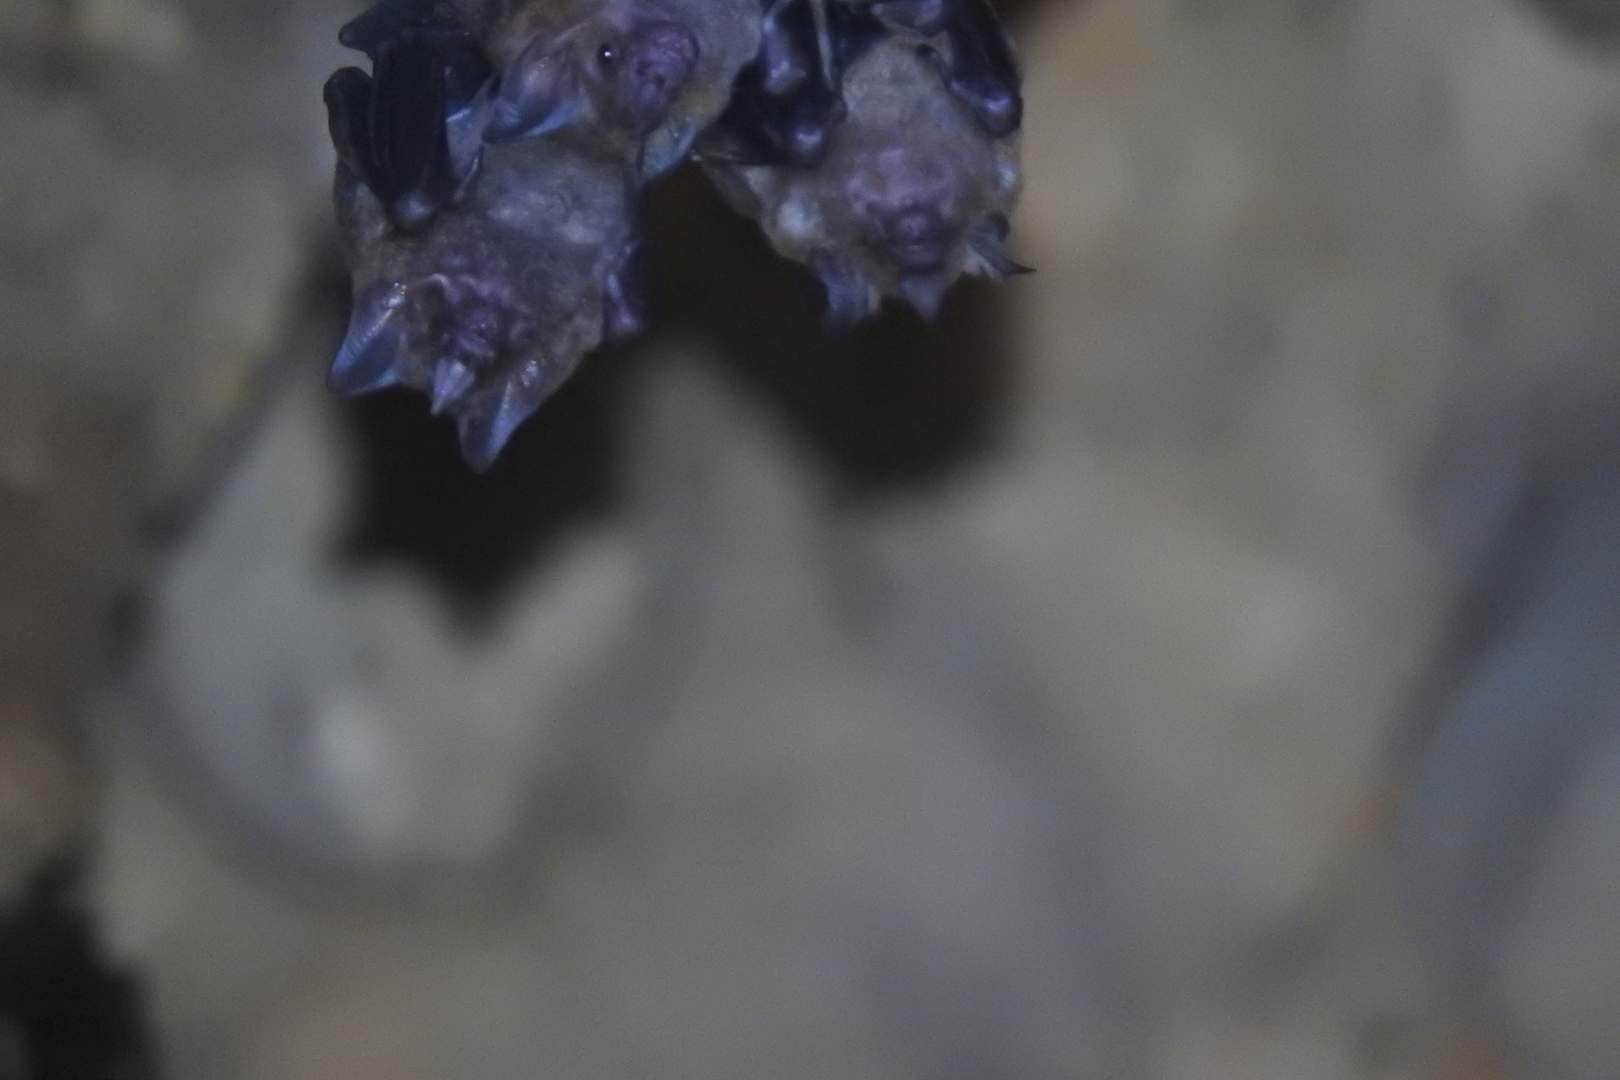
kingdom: Animalia
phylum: Chordata
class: Mammalia
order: Chiroptera
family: Phyllostomidae
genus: Carollia
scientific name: Carollia perspicillata
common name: Seba's short-tailed bat
